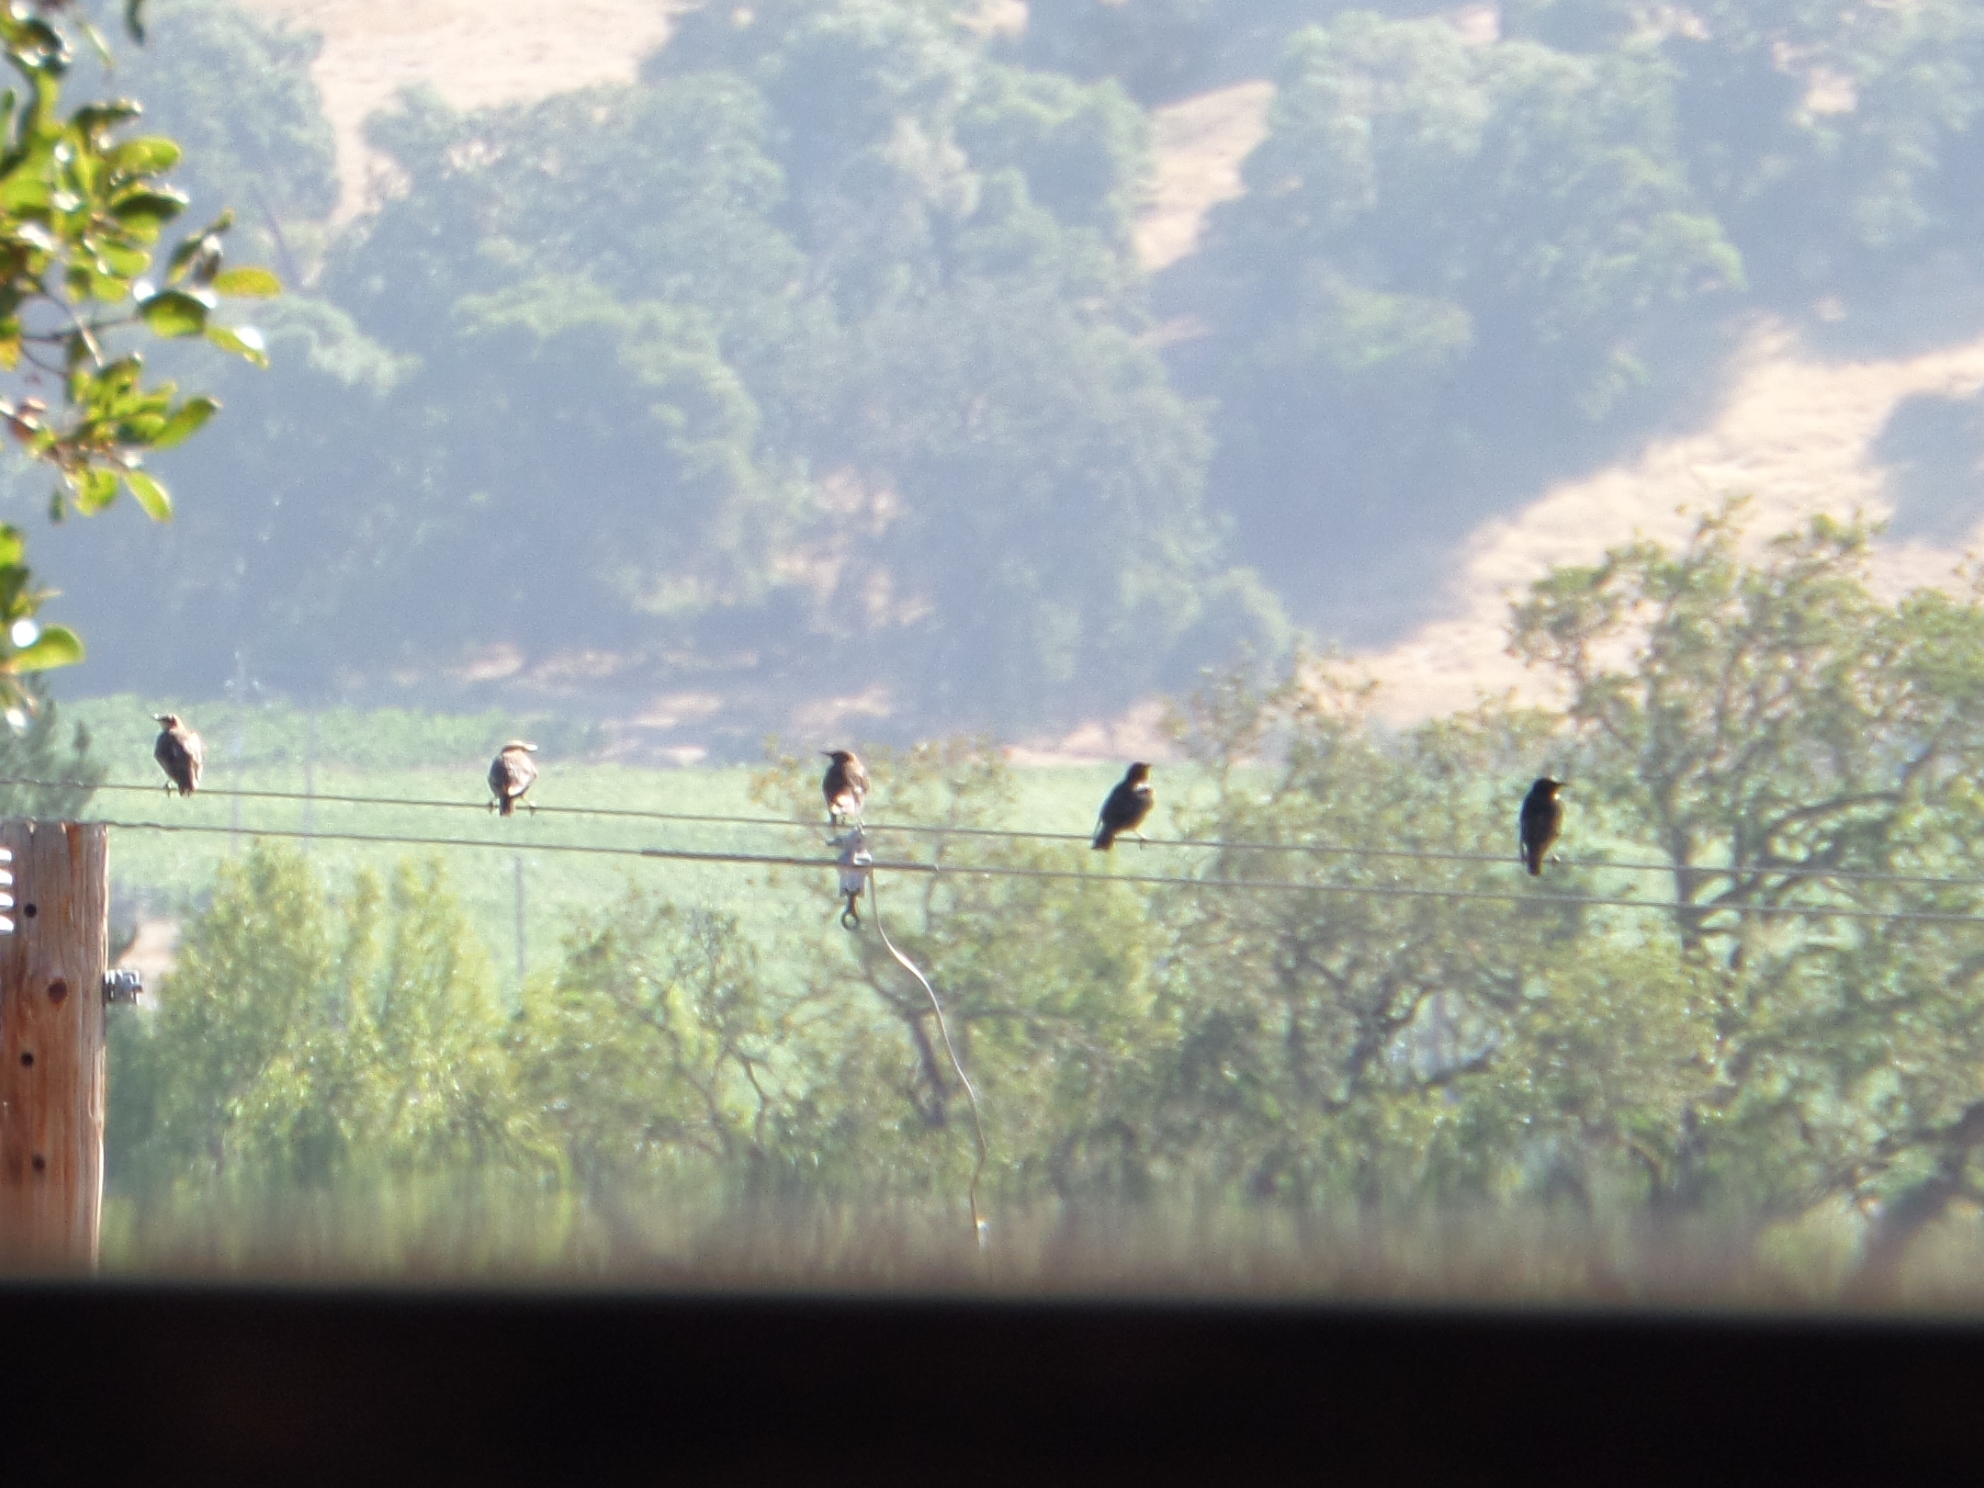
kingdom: Animalia
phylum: Chordata
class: Aves
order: Passeriformes
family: Sturnidae
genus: Sturnus
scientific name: Sturnus vulgaris
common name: Common starling
